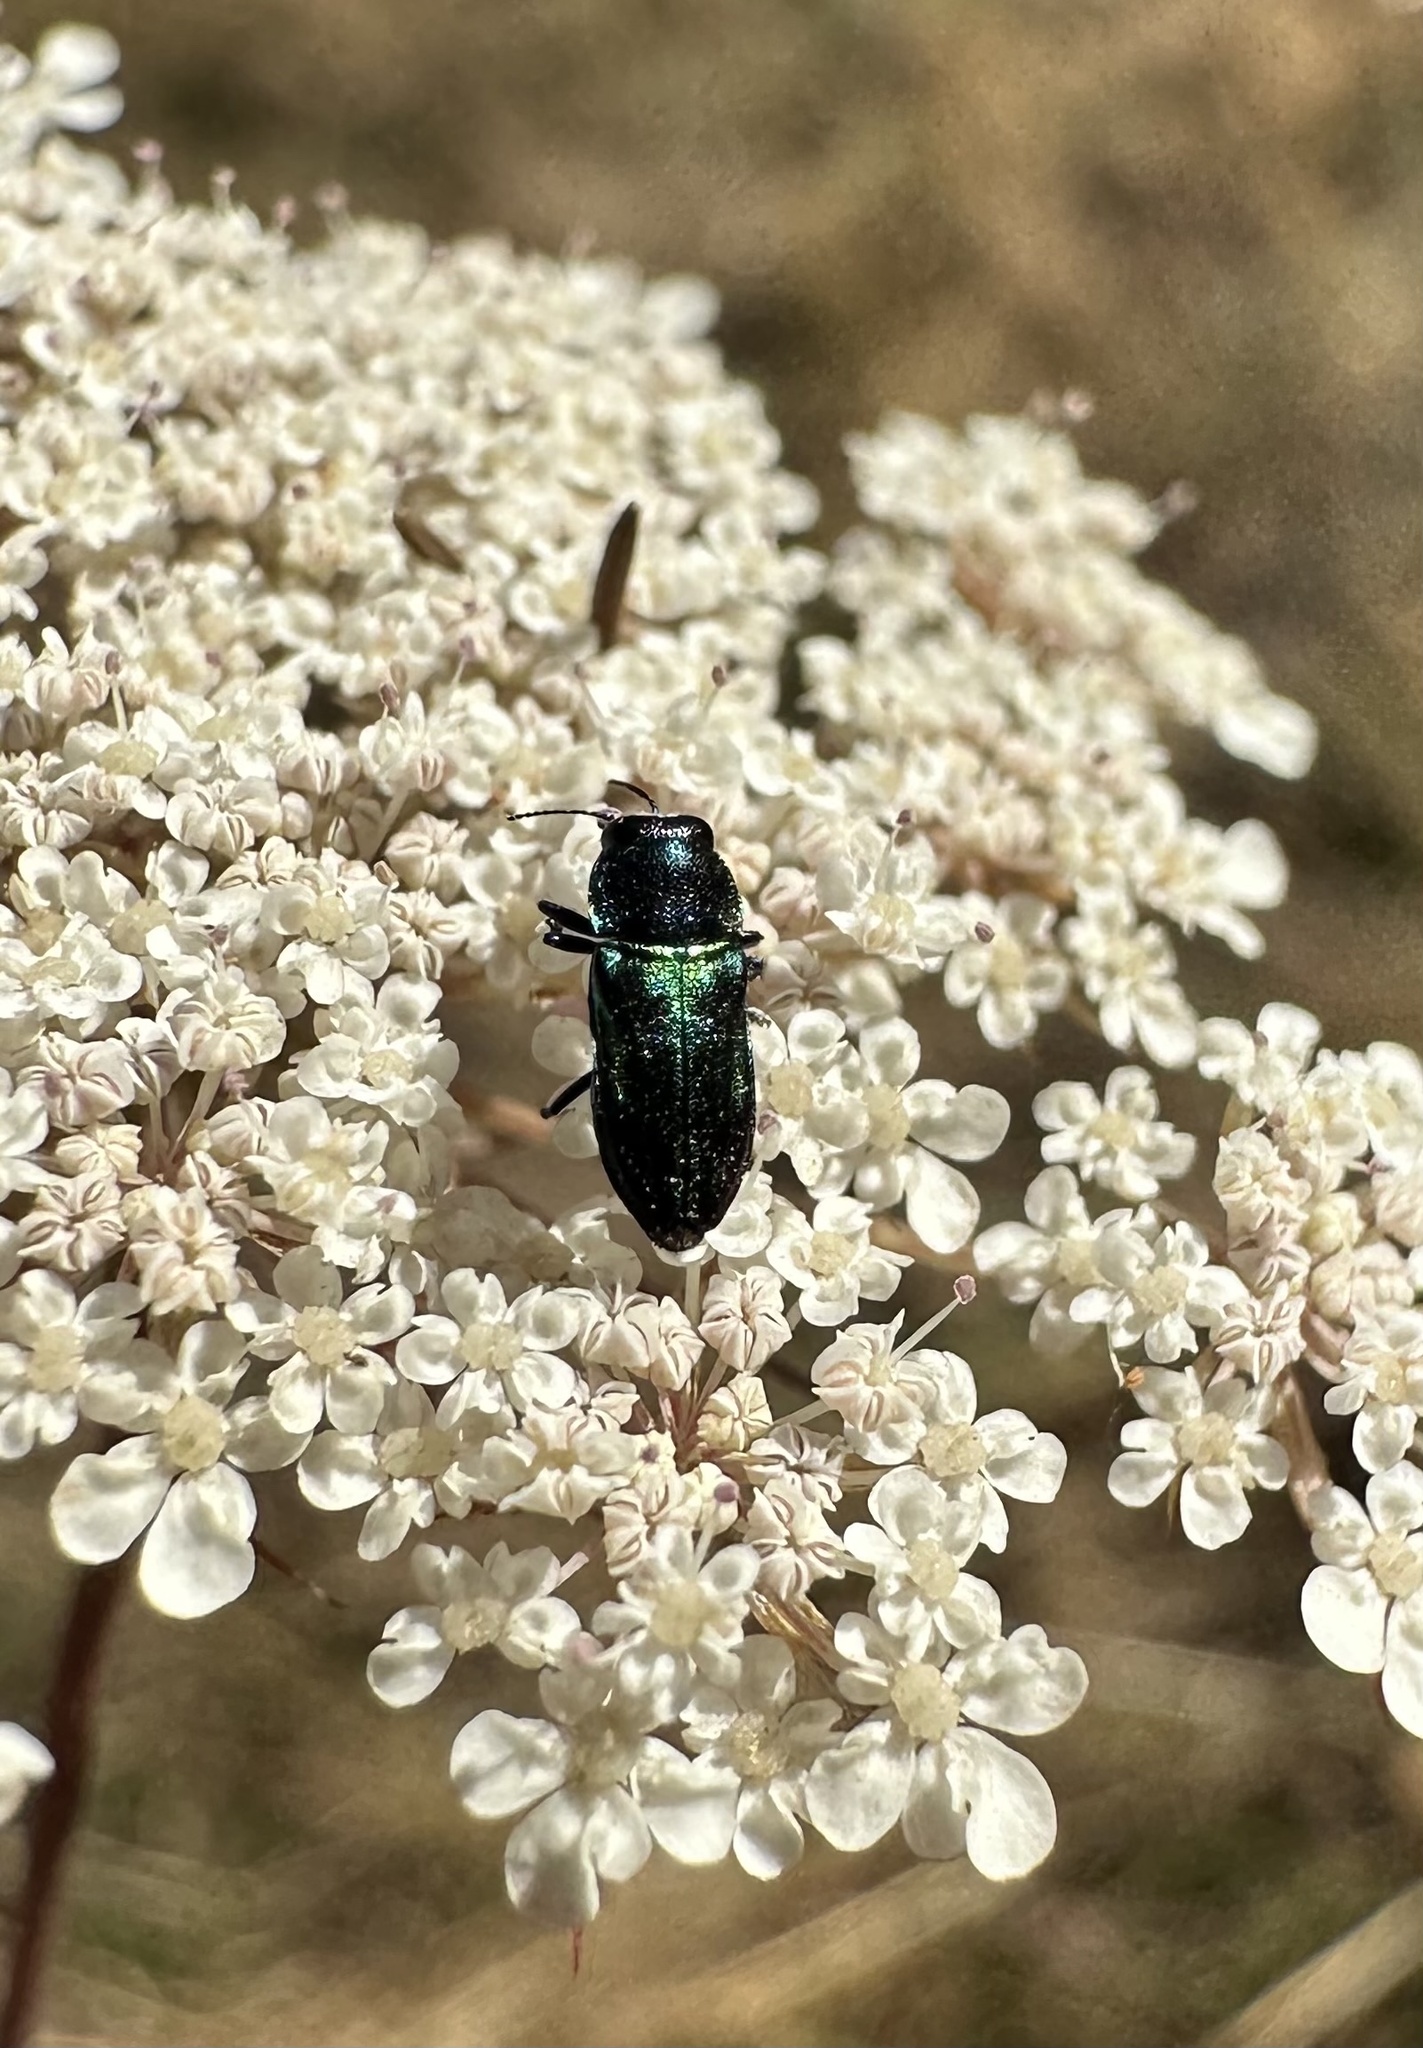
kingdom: Animalia
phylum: Arthropoda
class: Insecta
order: Coleoptera
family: Buprestidae
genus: Bilyaxia
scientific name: Bilyaxia concinna
